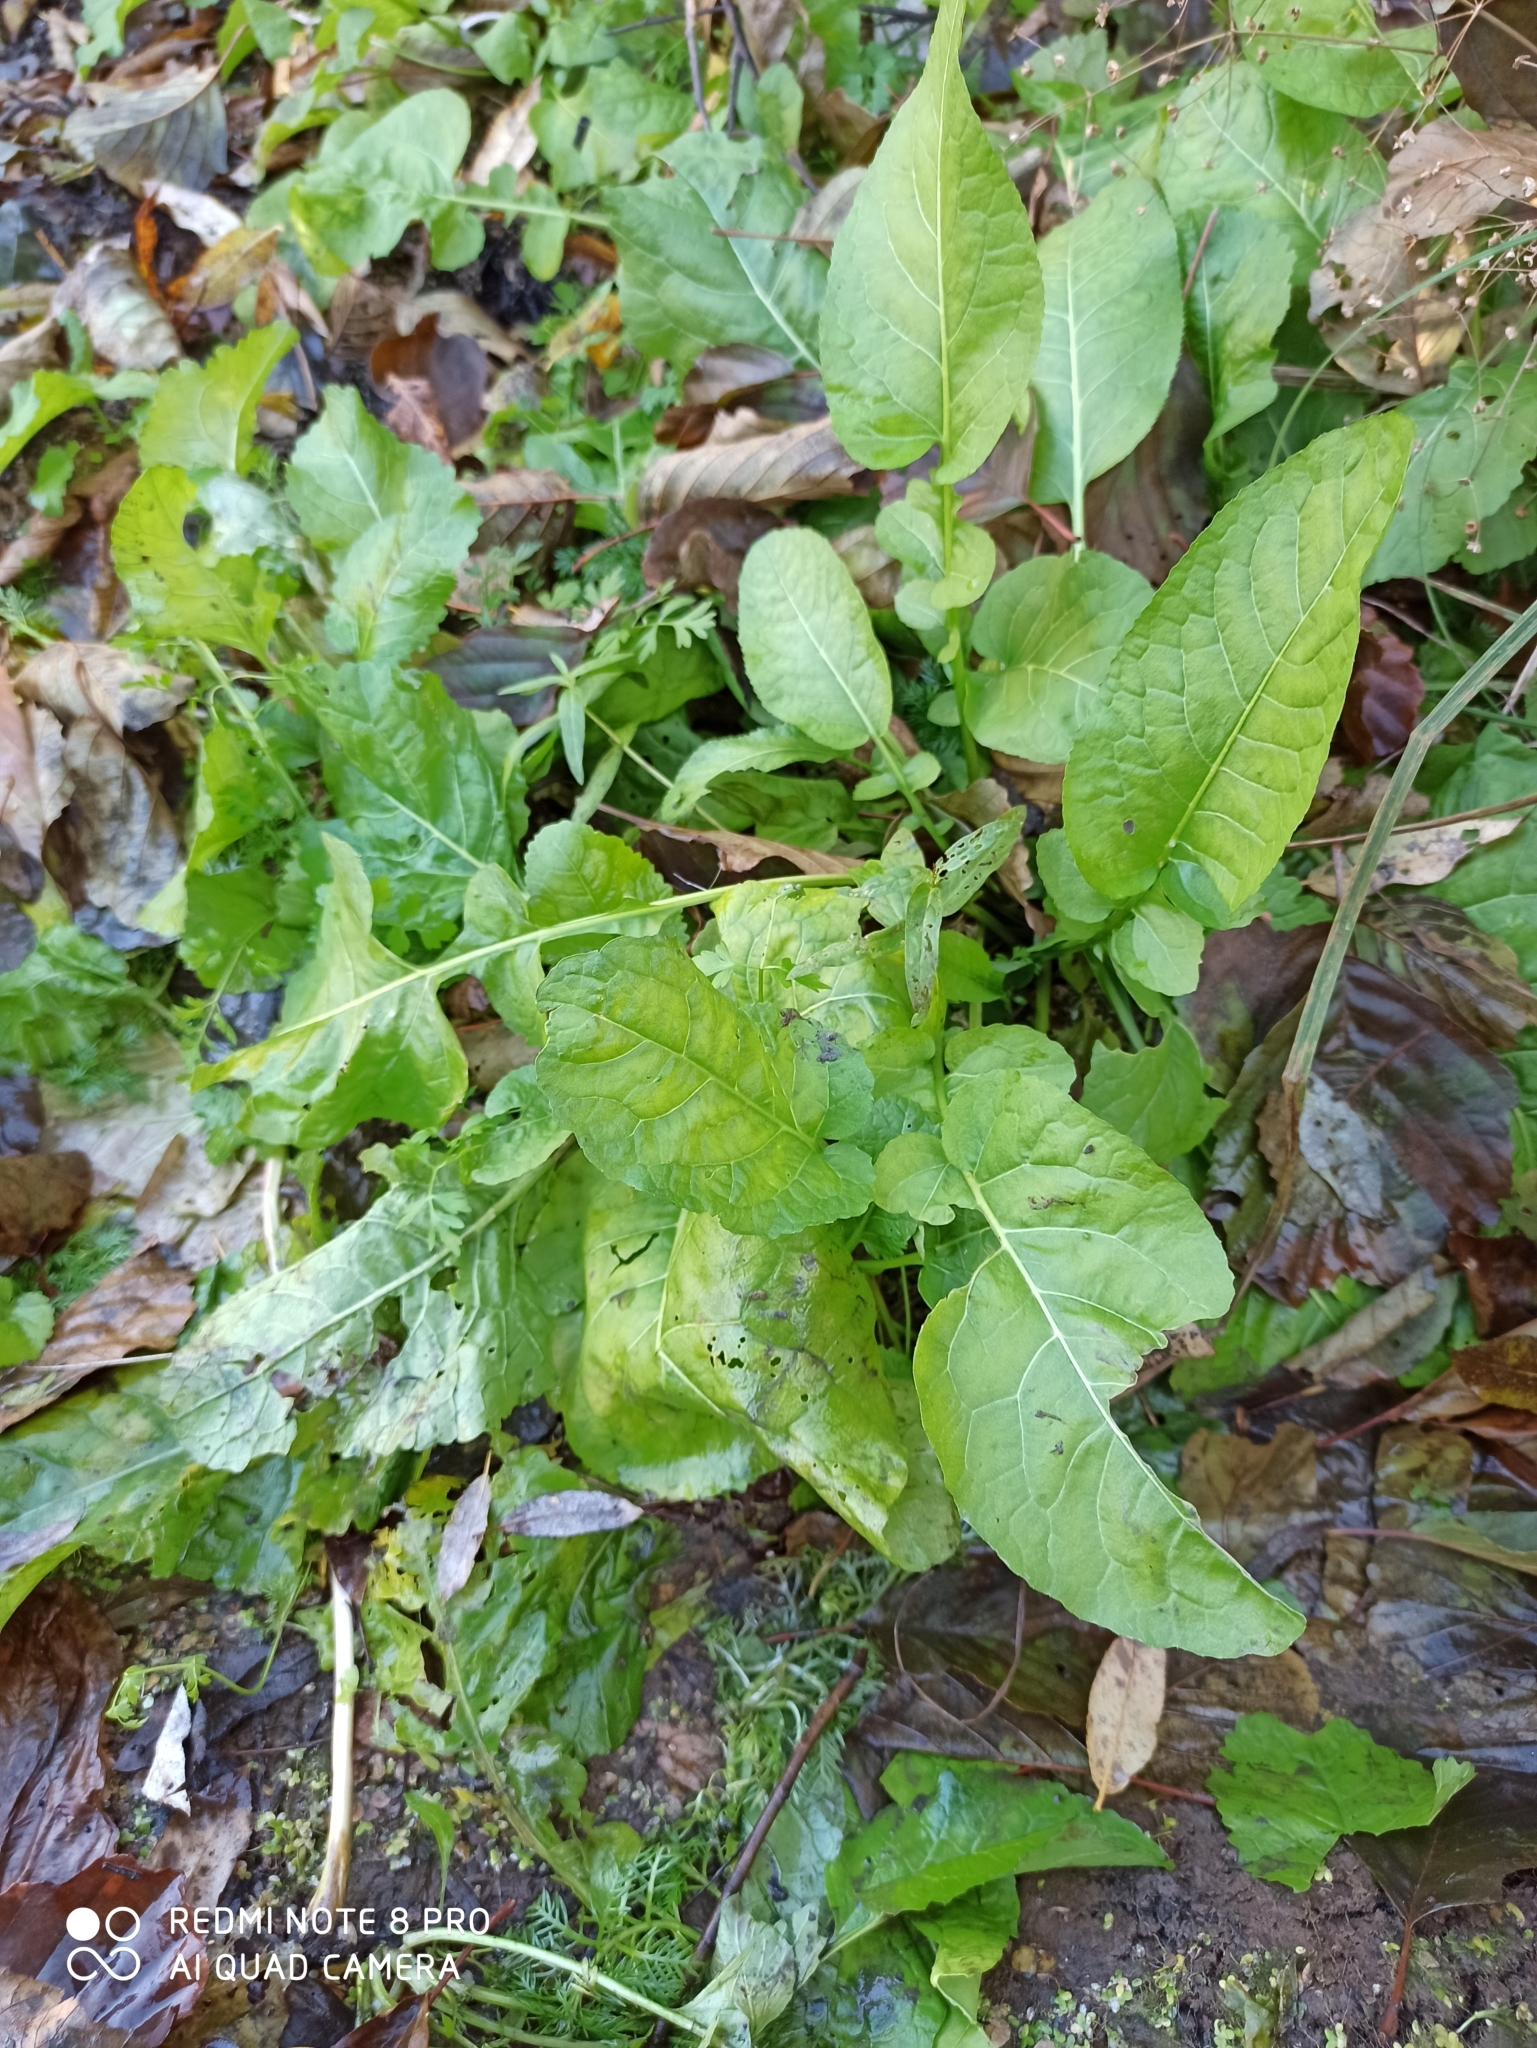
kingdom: Plantae
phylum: Tracheophyta
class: Magnoliopsida
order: Brassicales
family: Brassicaceae
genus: Rorippa
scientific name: Rorippa amphibia
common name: Great yellow-cress
